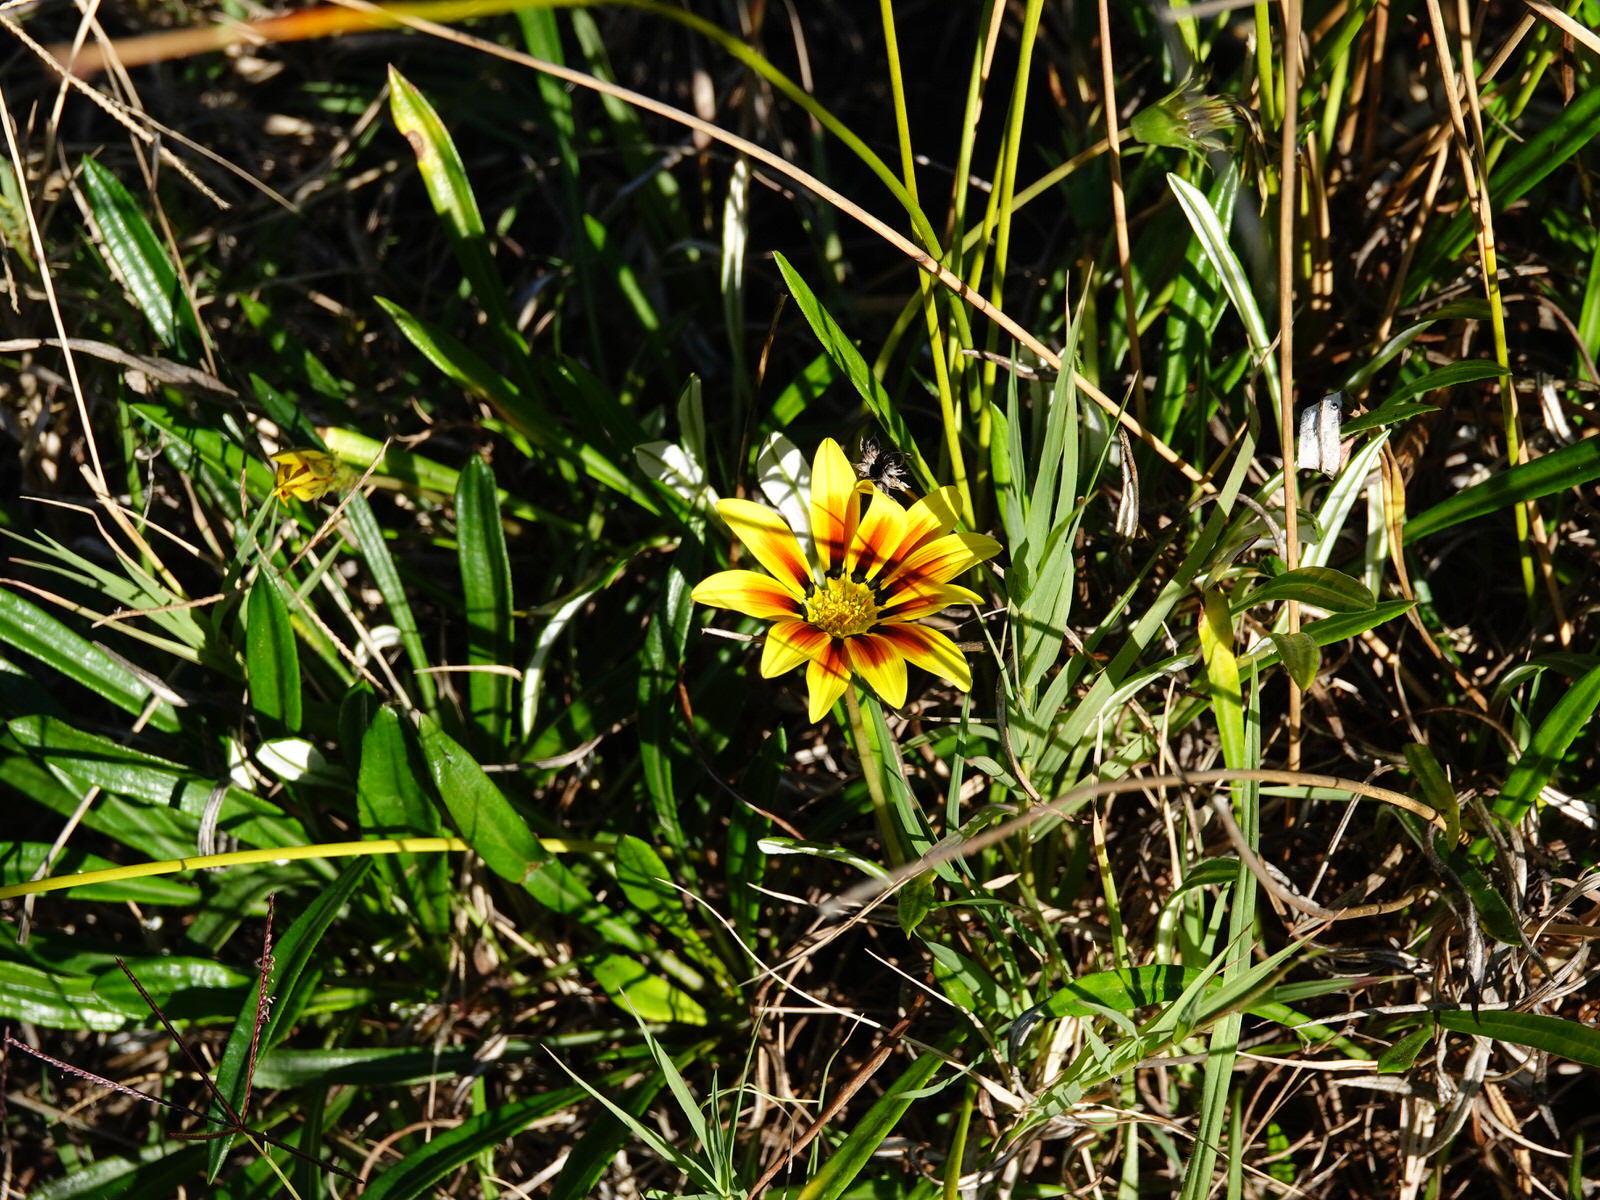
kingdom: Plantae
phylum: Tracheophyta
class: Magnoliopsida
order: Asterales
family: Asteraceae
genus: Gazania
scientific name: Gazania splendens
